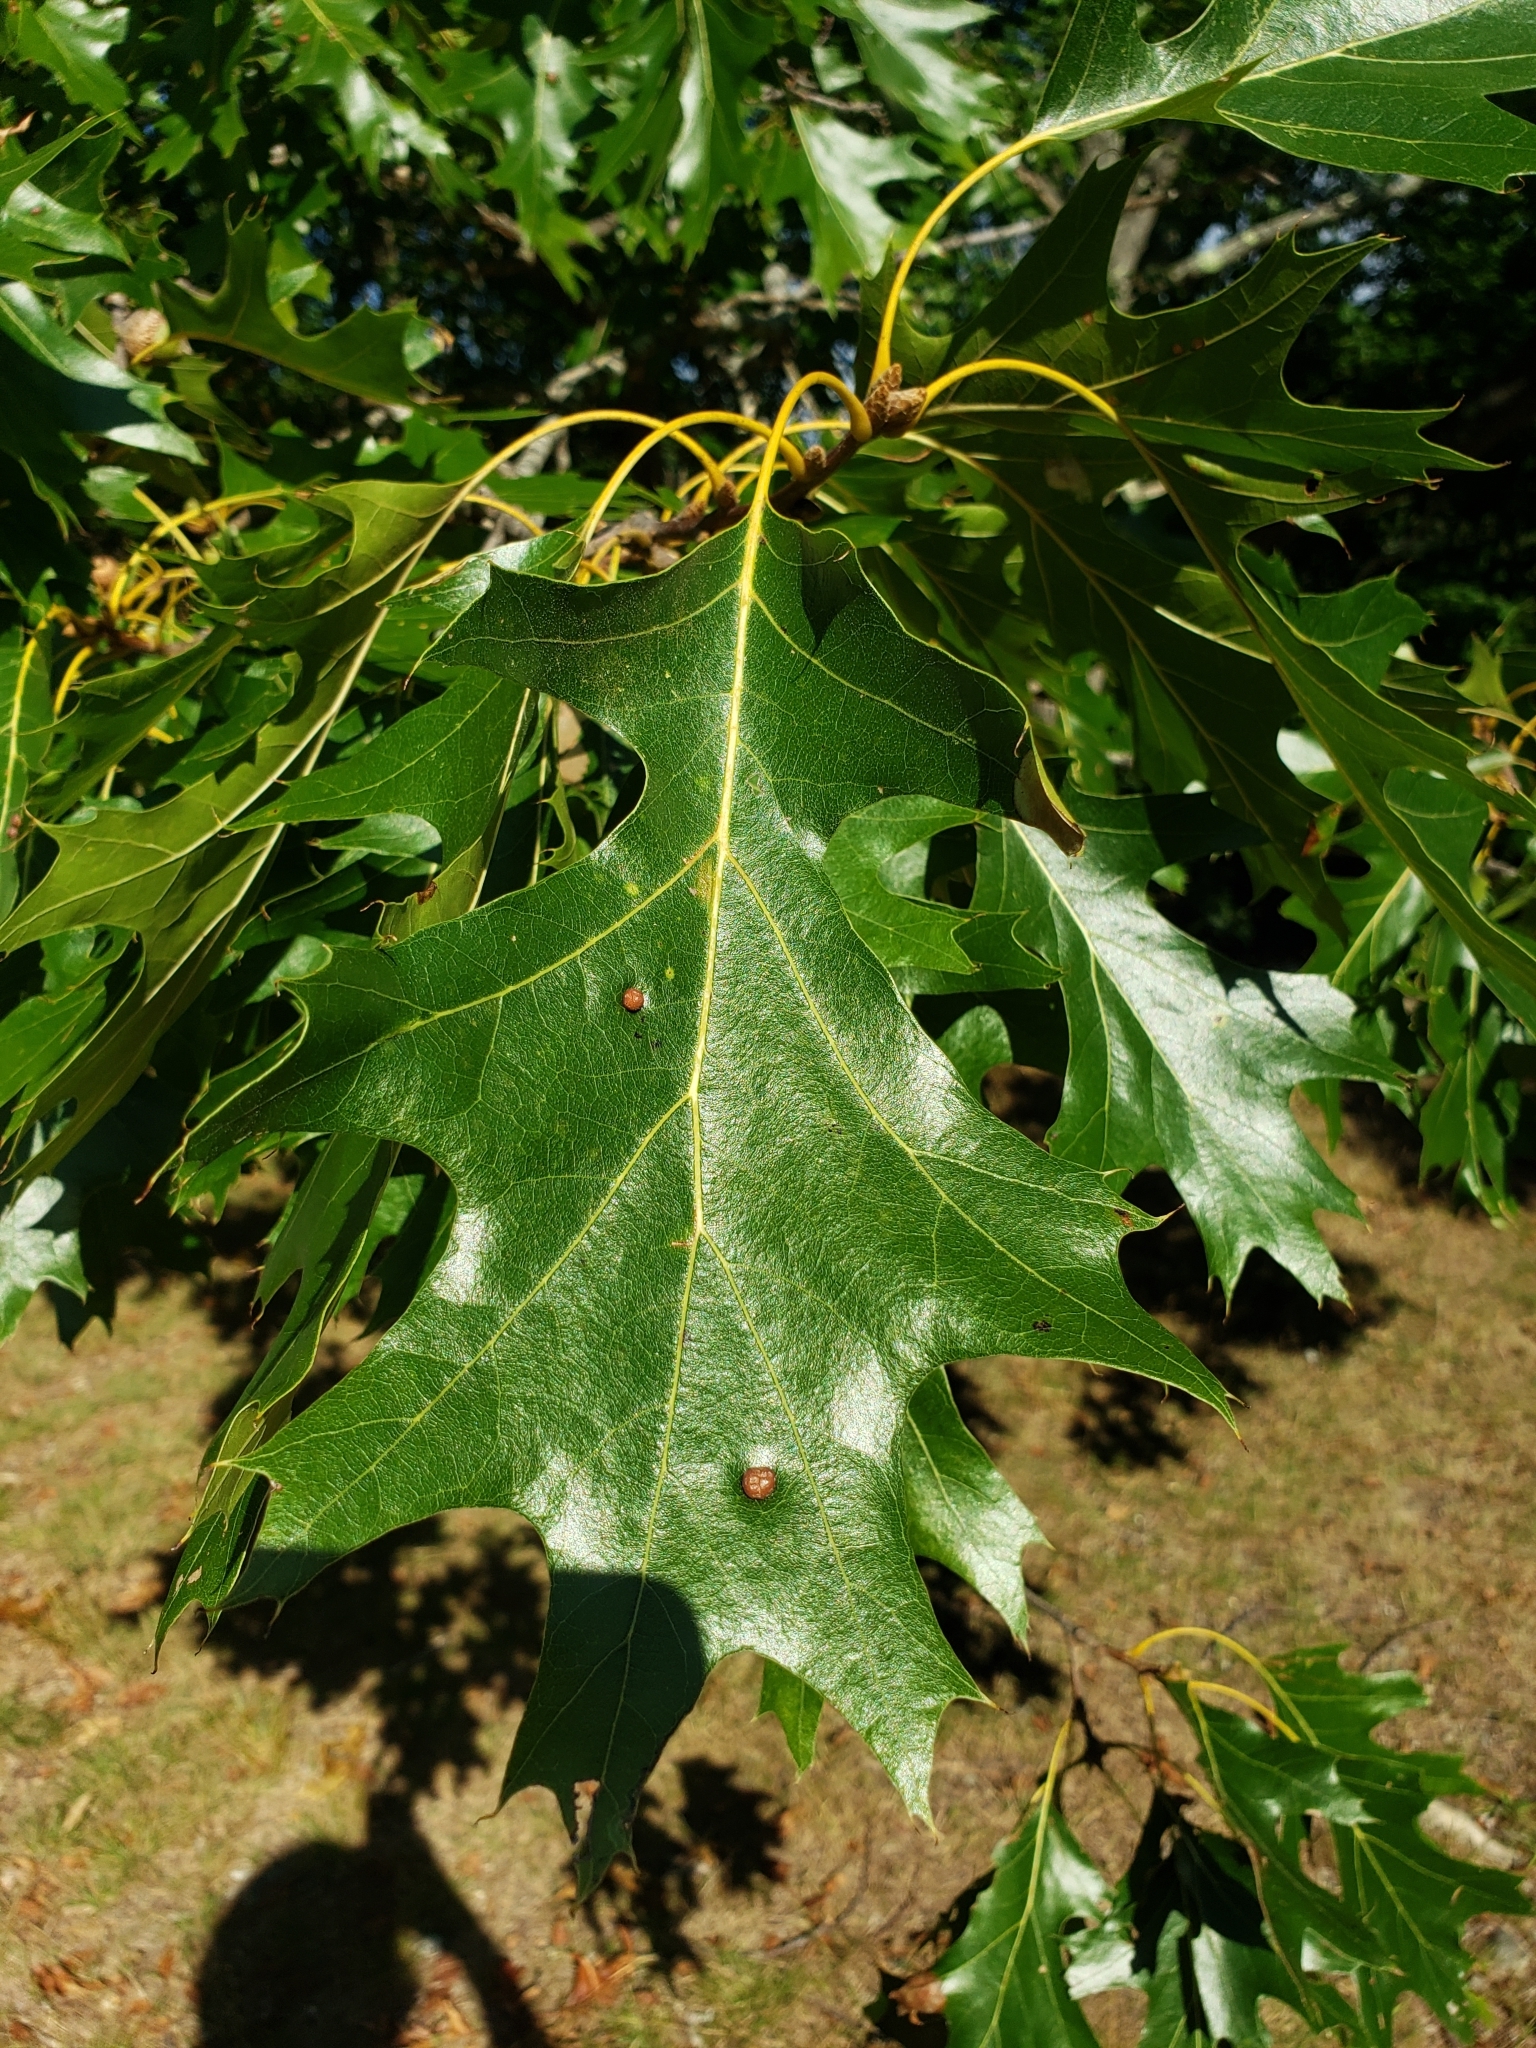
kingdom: Plantae
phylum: Tracheophyta
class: Magnoliopsida
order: Fagales
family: Fagaceae
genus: Quercus
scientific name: Quercus velutina
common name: Black oak
